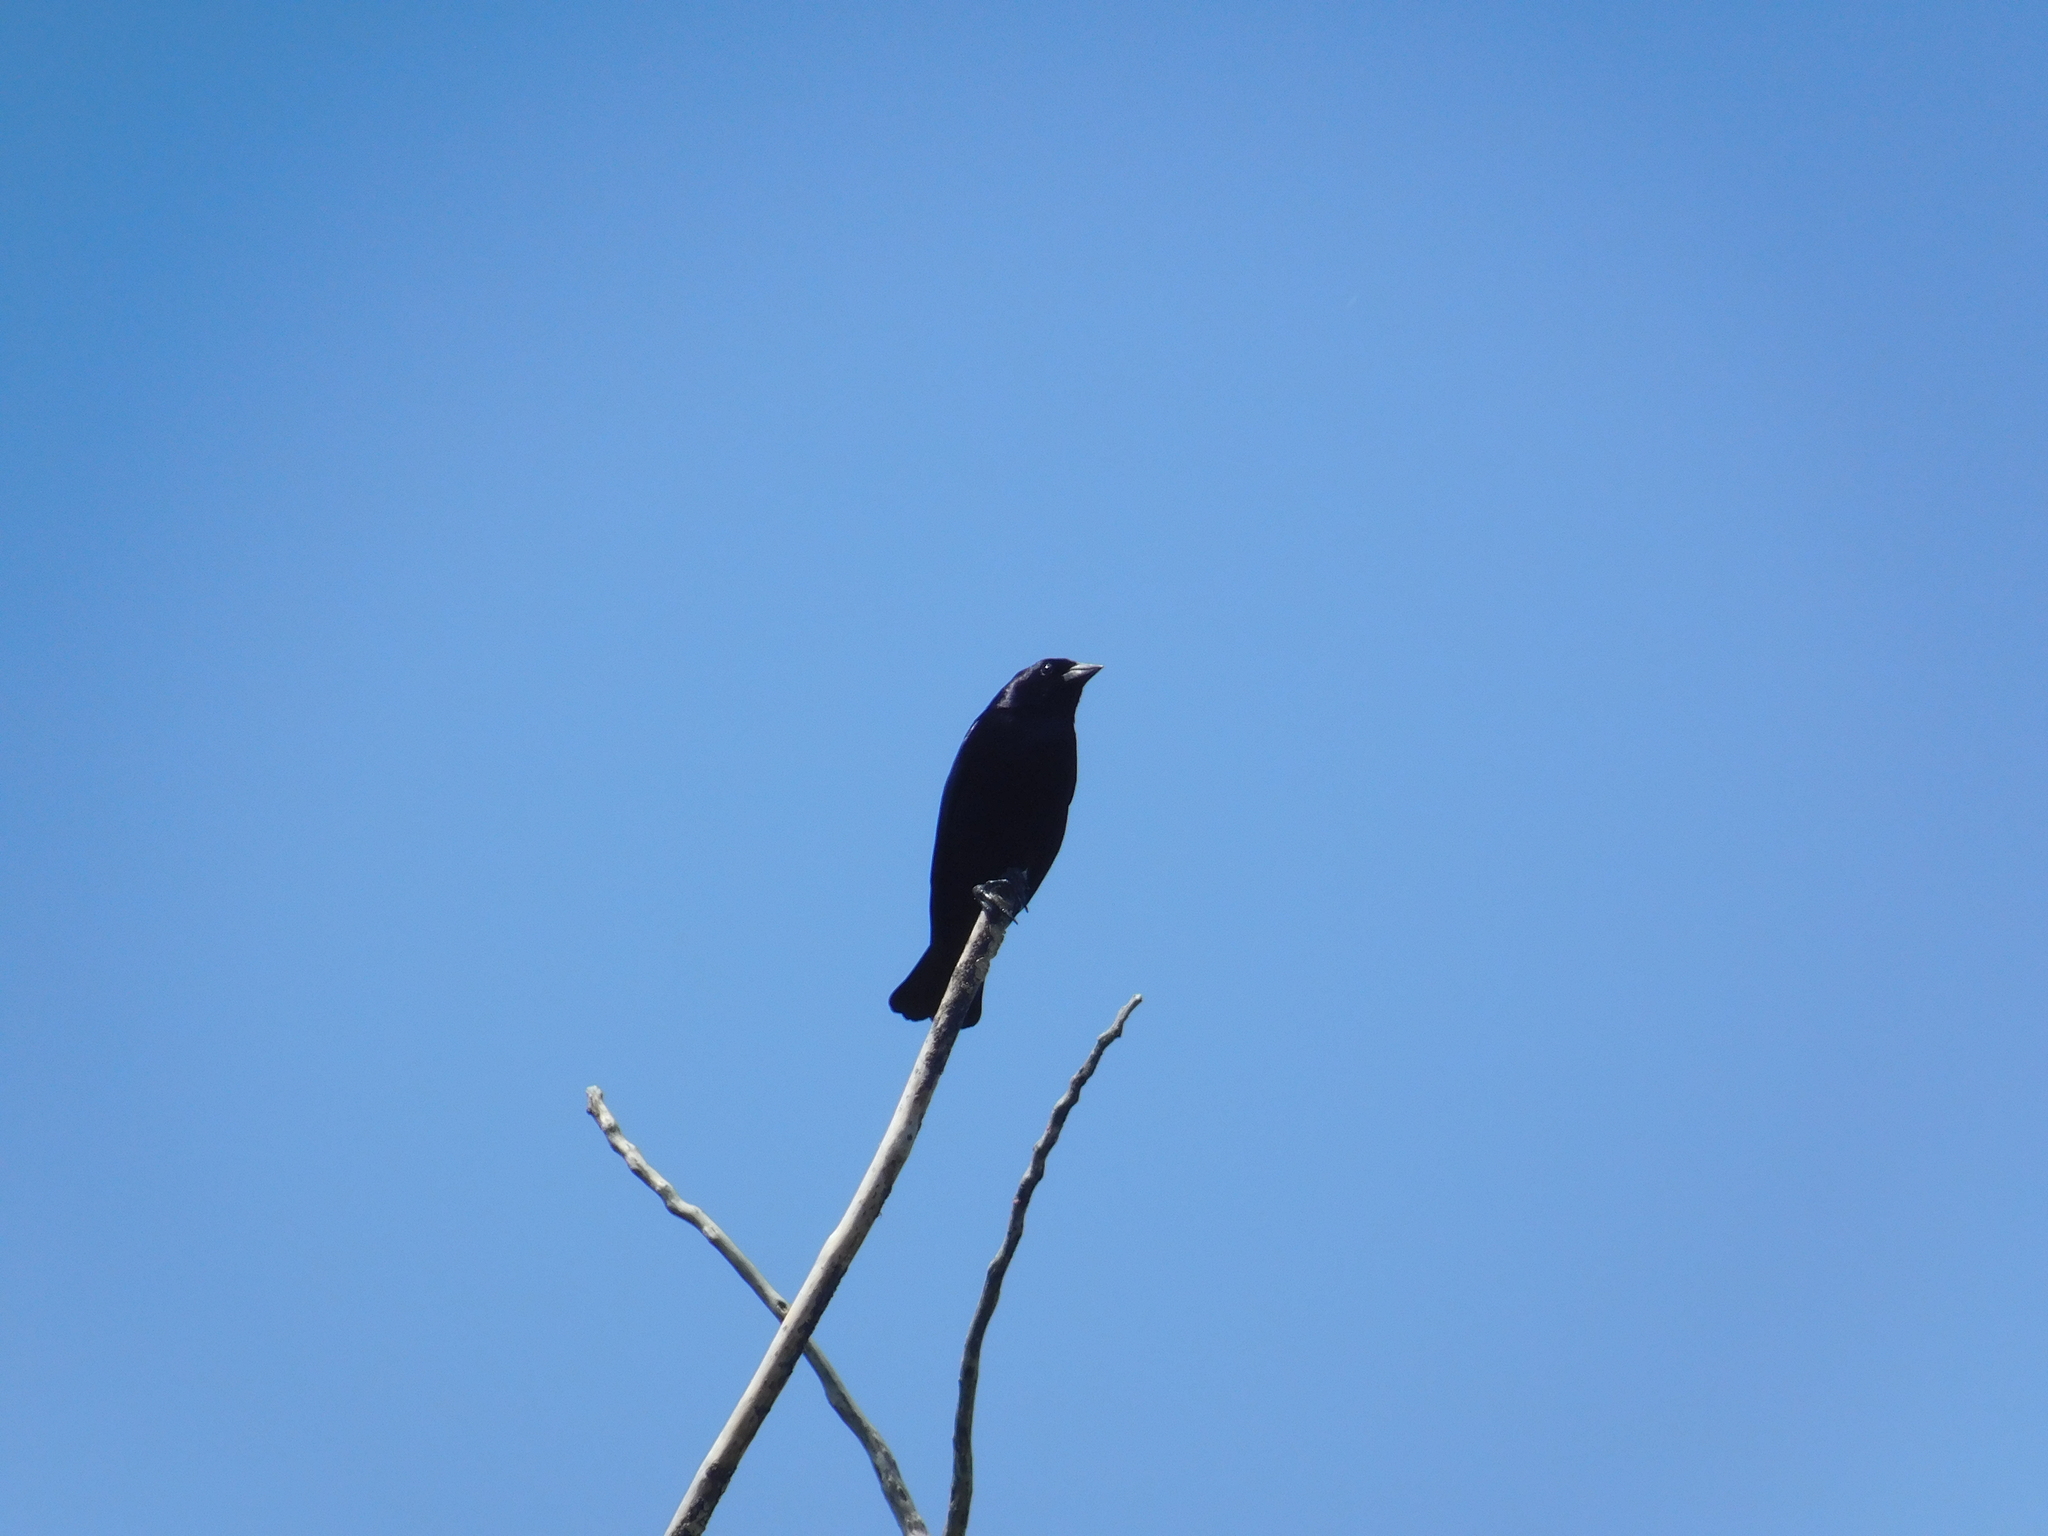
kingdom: Animalia
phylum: Chordata
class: Aves
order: Passeriformes
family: Icteridae
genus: Molothrus
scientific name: Molothrus bonariensis
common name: Shiny cowbird
